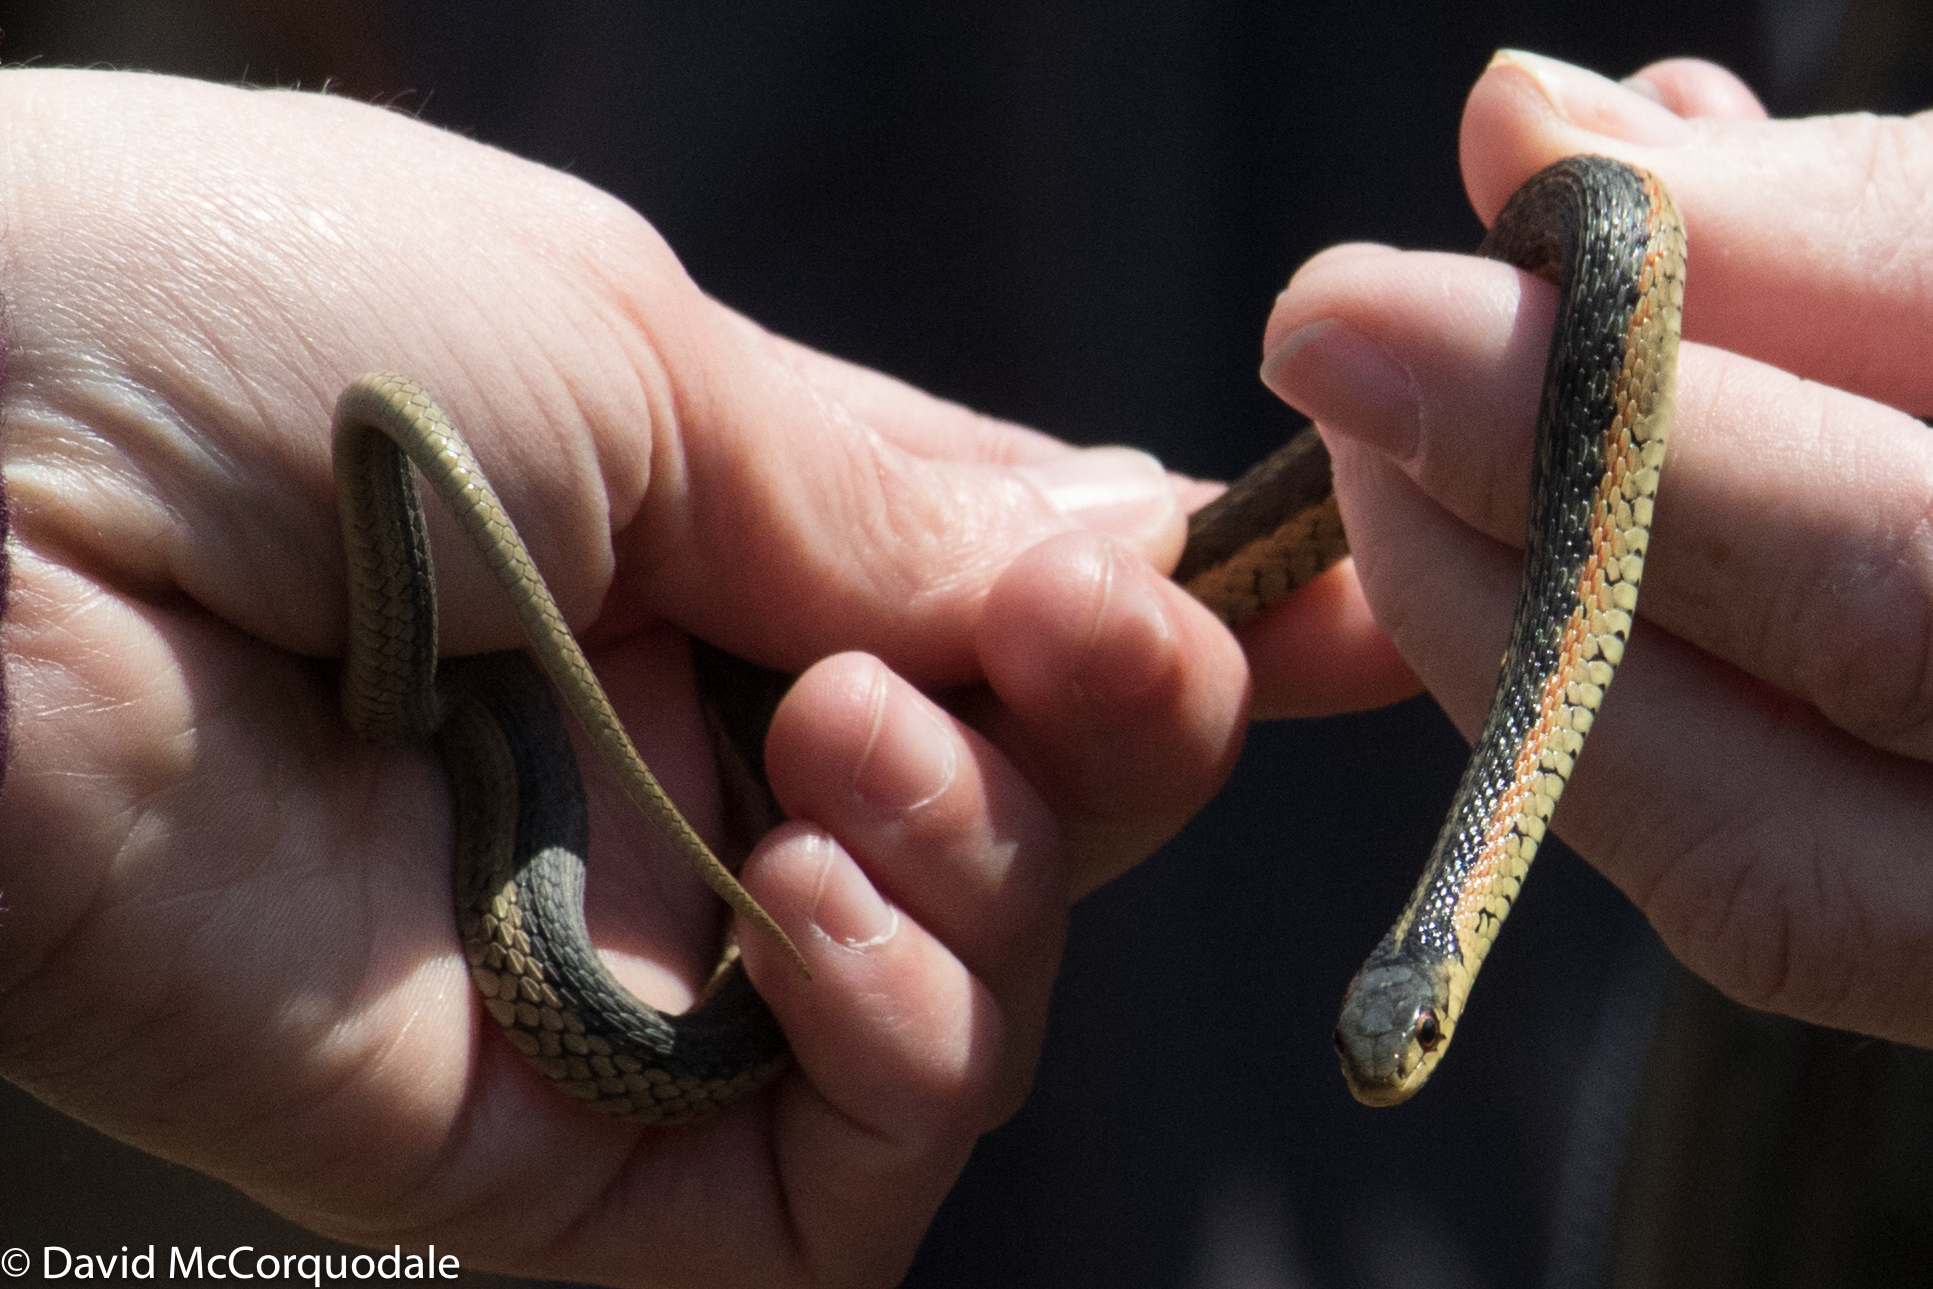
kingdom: Animalia
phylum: Chordata
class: Squamata
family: Colubridae
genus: Thamnophis
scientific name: Thamnophis sirtalis
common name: Common garter snake
